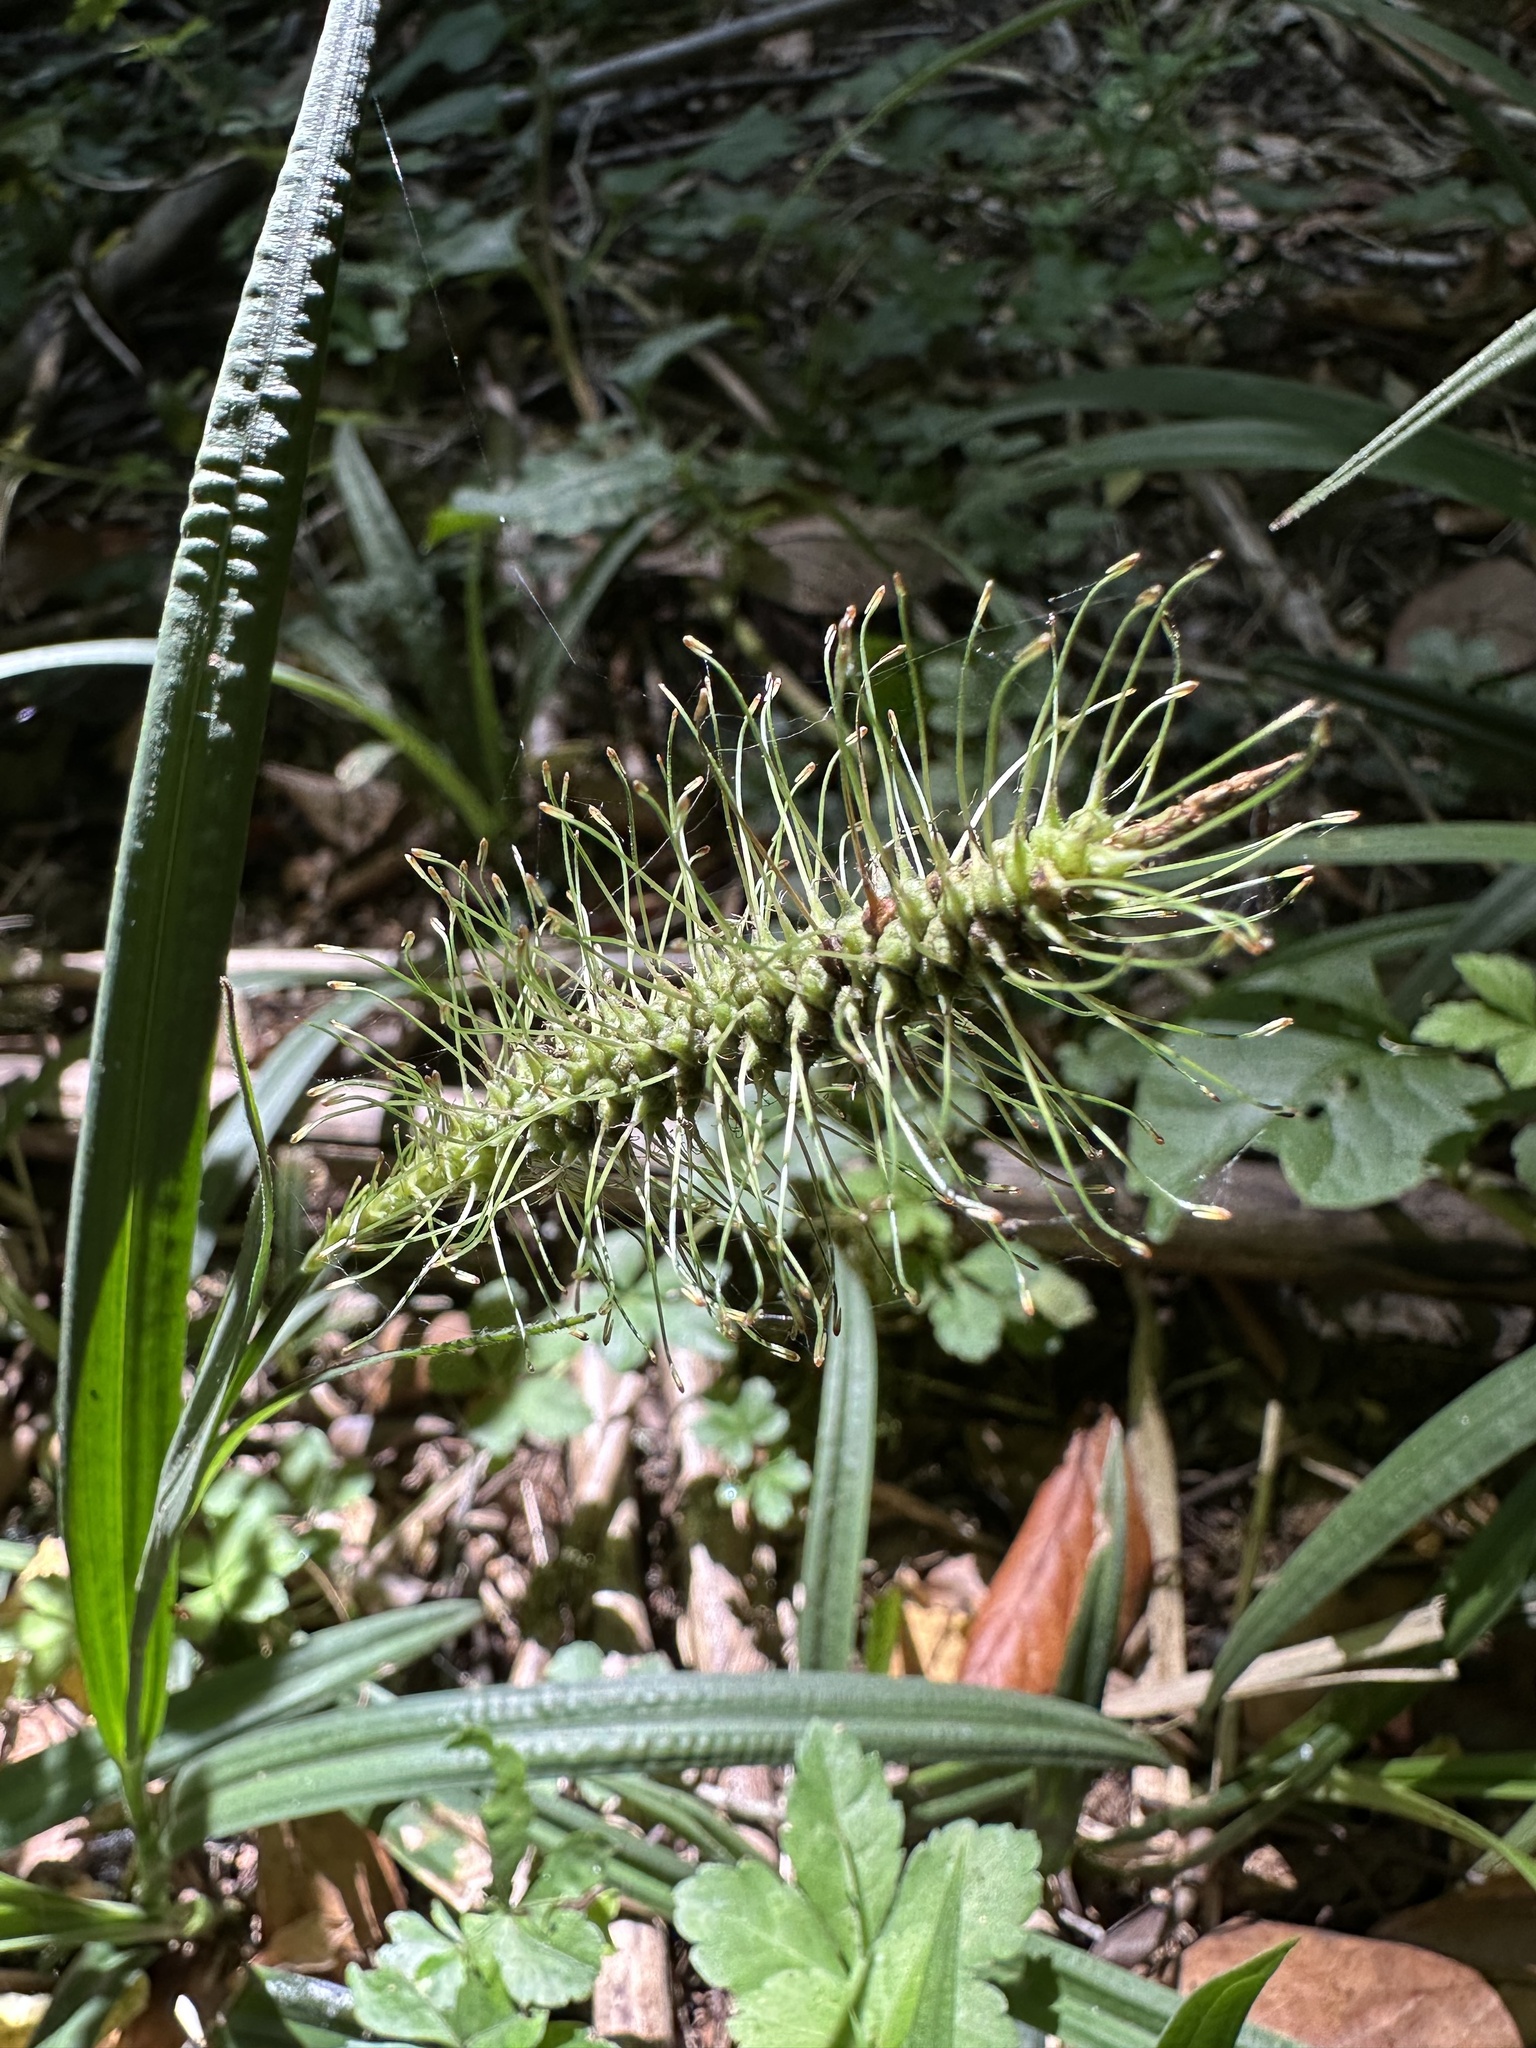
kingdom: Plantae
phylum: Tracheophyta
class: Liliopsida
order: Poales
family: Cyperaceae
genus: Carex
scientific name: Carex erinacea
